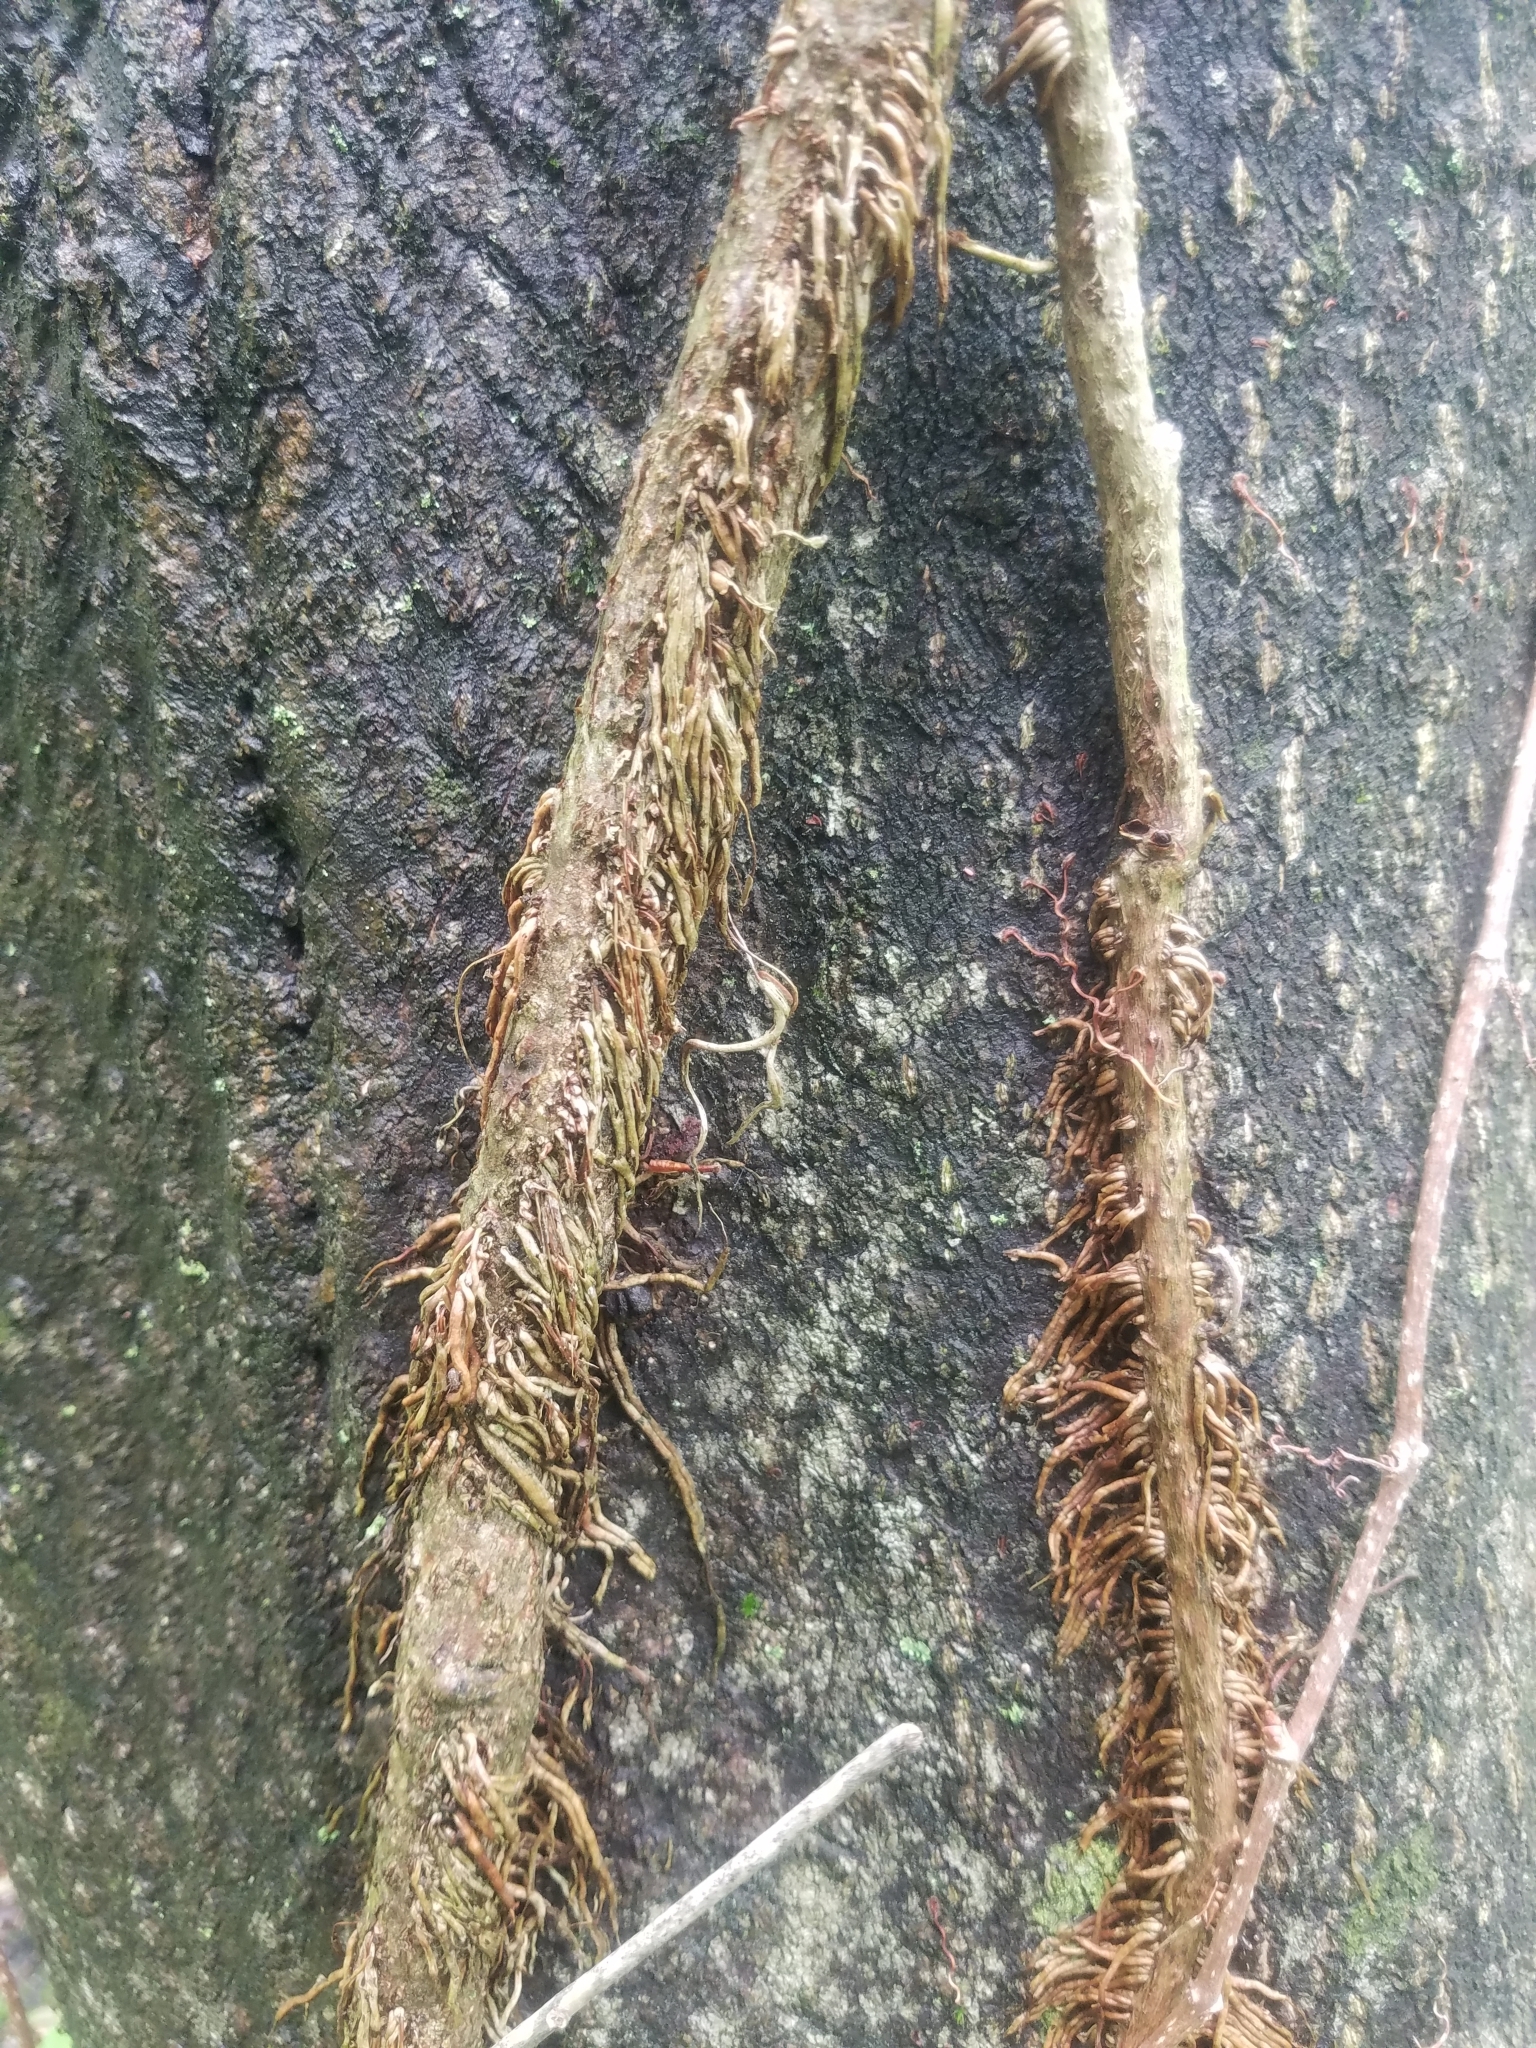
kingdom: Plantae
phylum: Tracheophyta
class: Magnoliopsida
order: Sapindales
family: Anacardiaceae
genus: Toxicodendron
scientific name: Toxicodendron radicans
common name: Poison ivy
